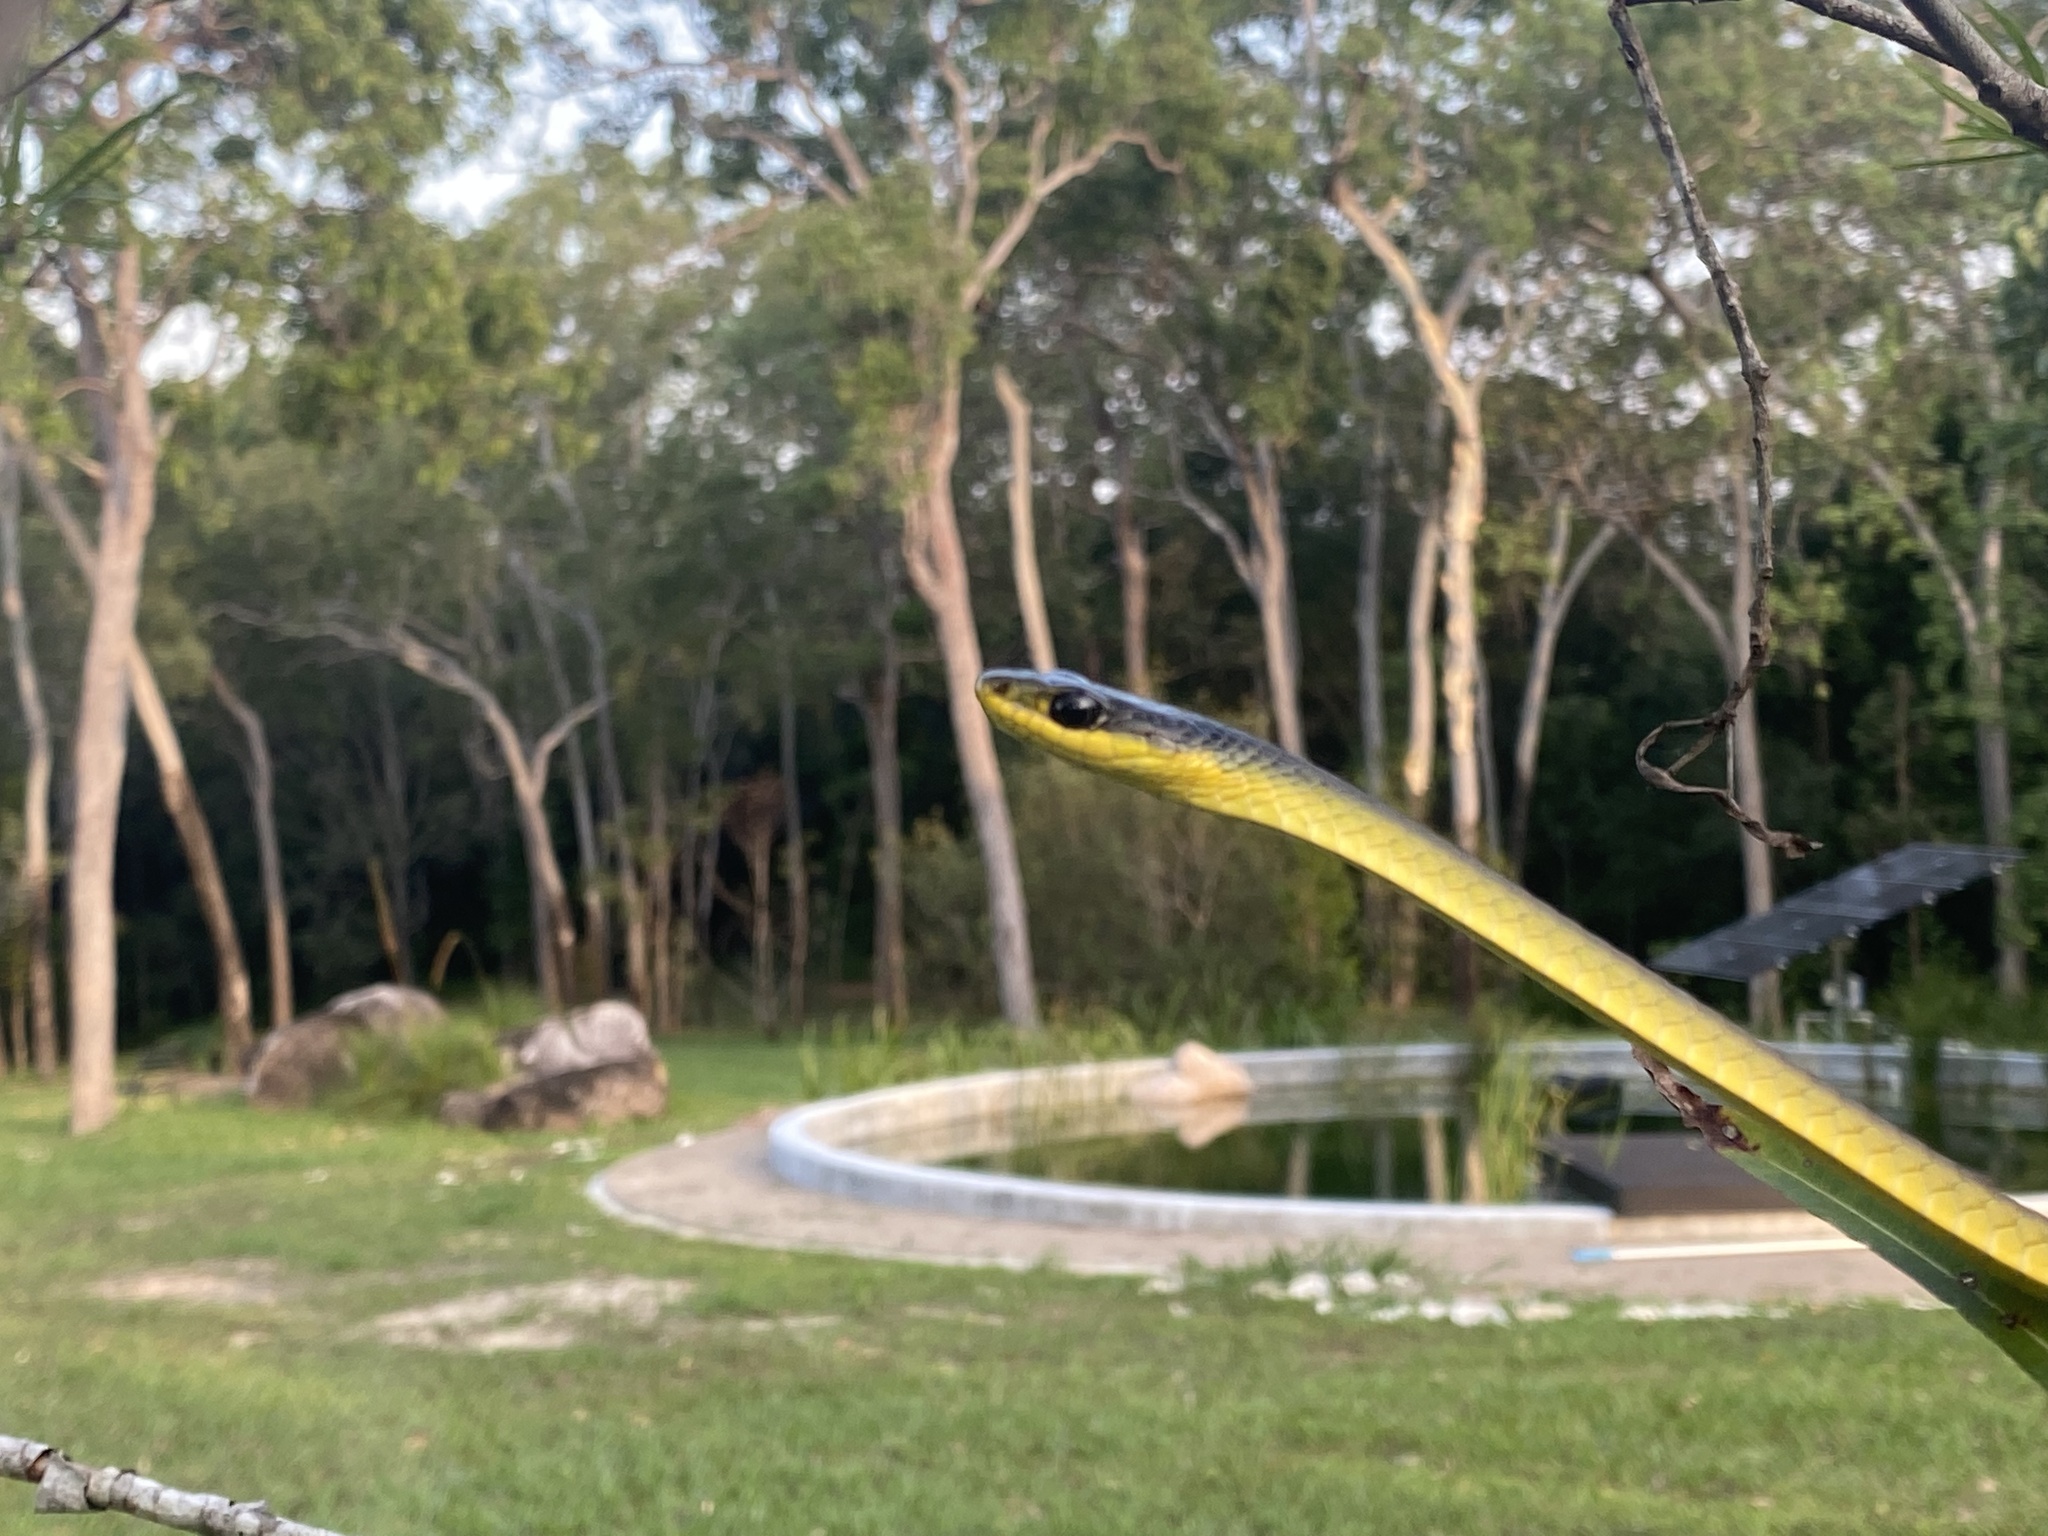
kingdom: Animalia
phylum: Chordata
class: Squamata
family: Colubridae
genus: Dendrelaphis
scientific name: Dendrelaphis punctulatus
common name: Common tree snake
